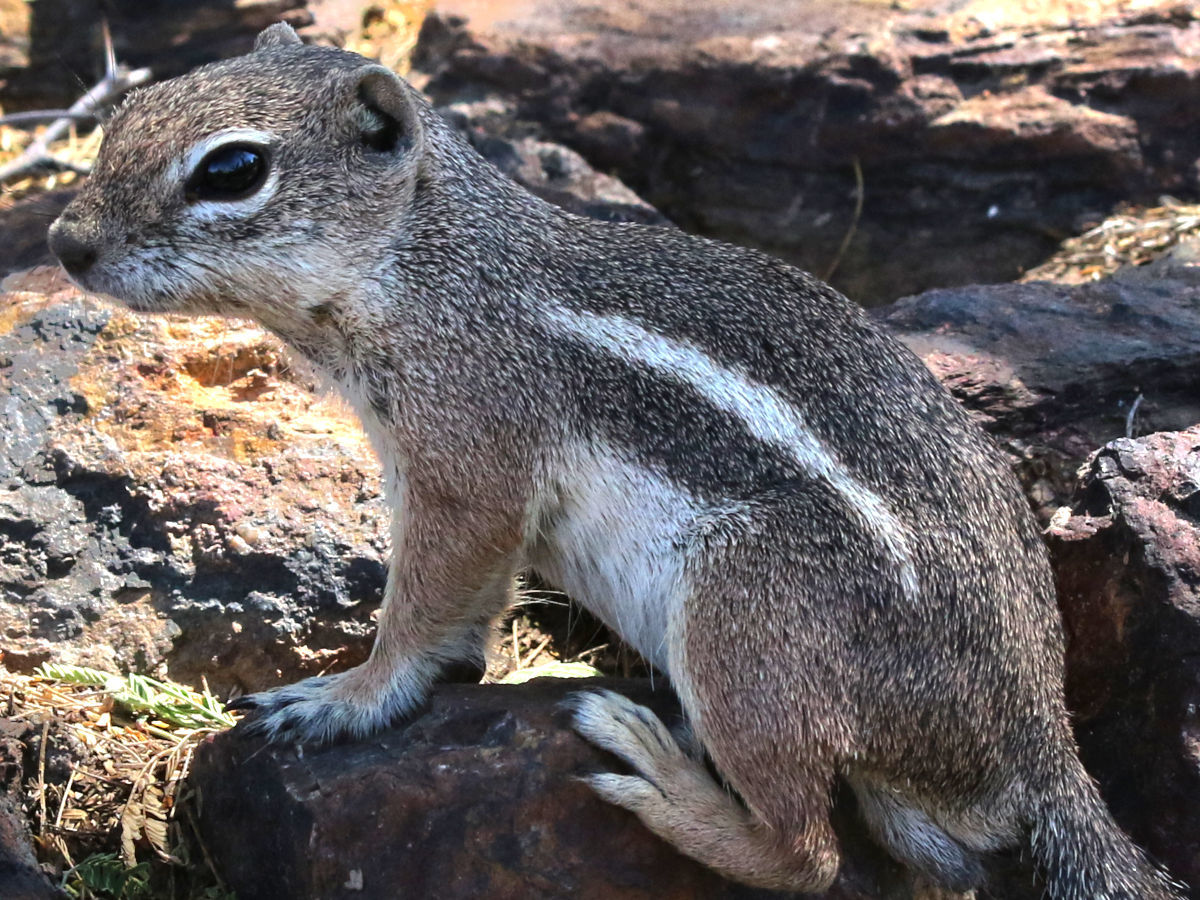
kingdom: Animalia
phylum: Chordata
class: Mammalia
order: Rodentia
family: Sciuridae
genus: Ammospermophilus
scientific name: Ammospermophilus harrisii
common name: Harris's antelope squirrel
